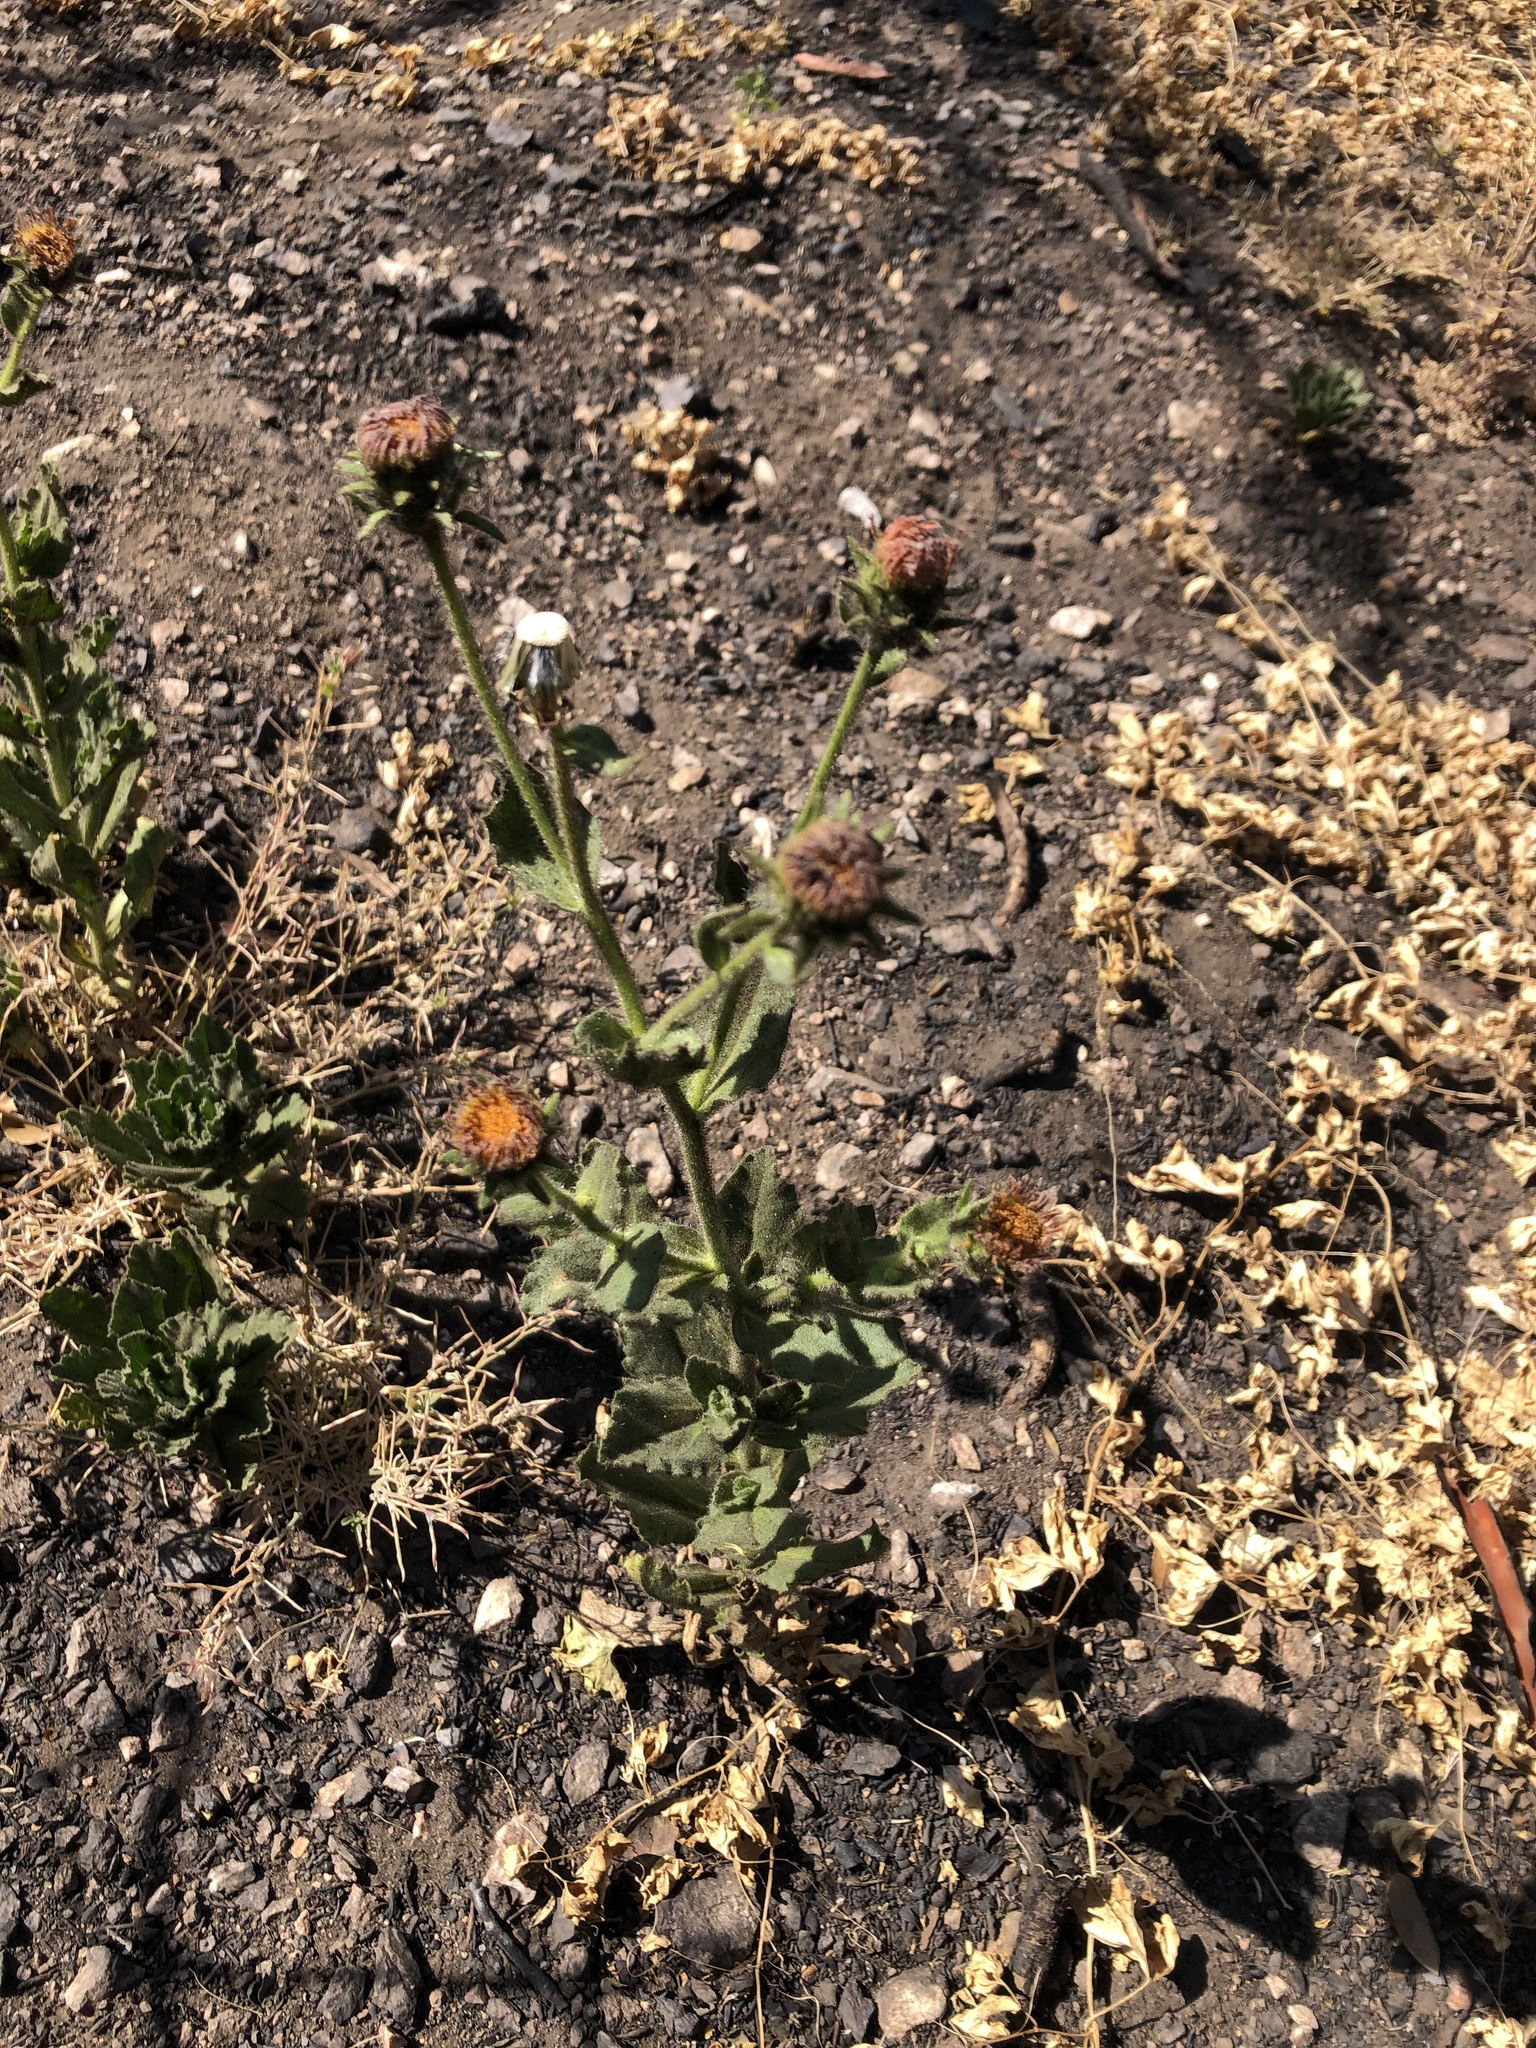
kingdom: Plantae
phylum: Tracheophyta
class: Magnoliopsida
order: Asterales
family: Asteraceae
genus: Hulsea
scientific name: Hulsea heterochroma
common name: Redray alpinegold
